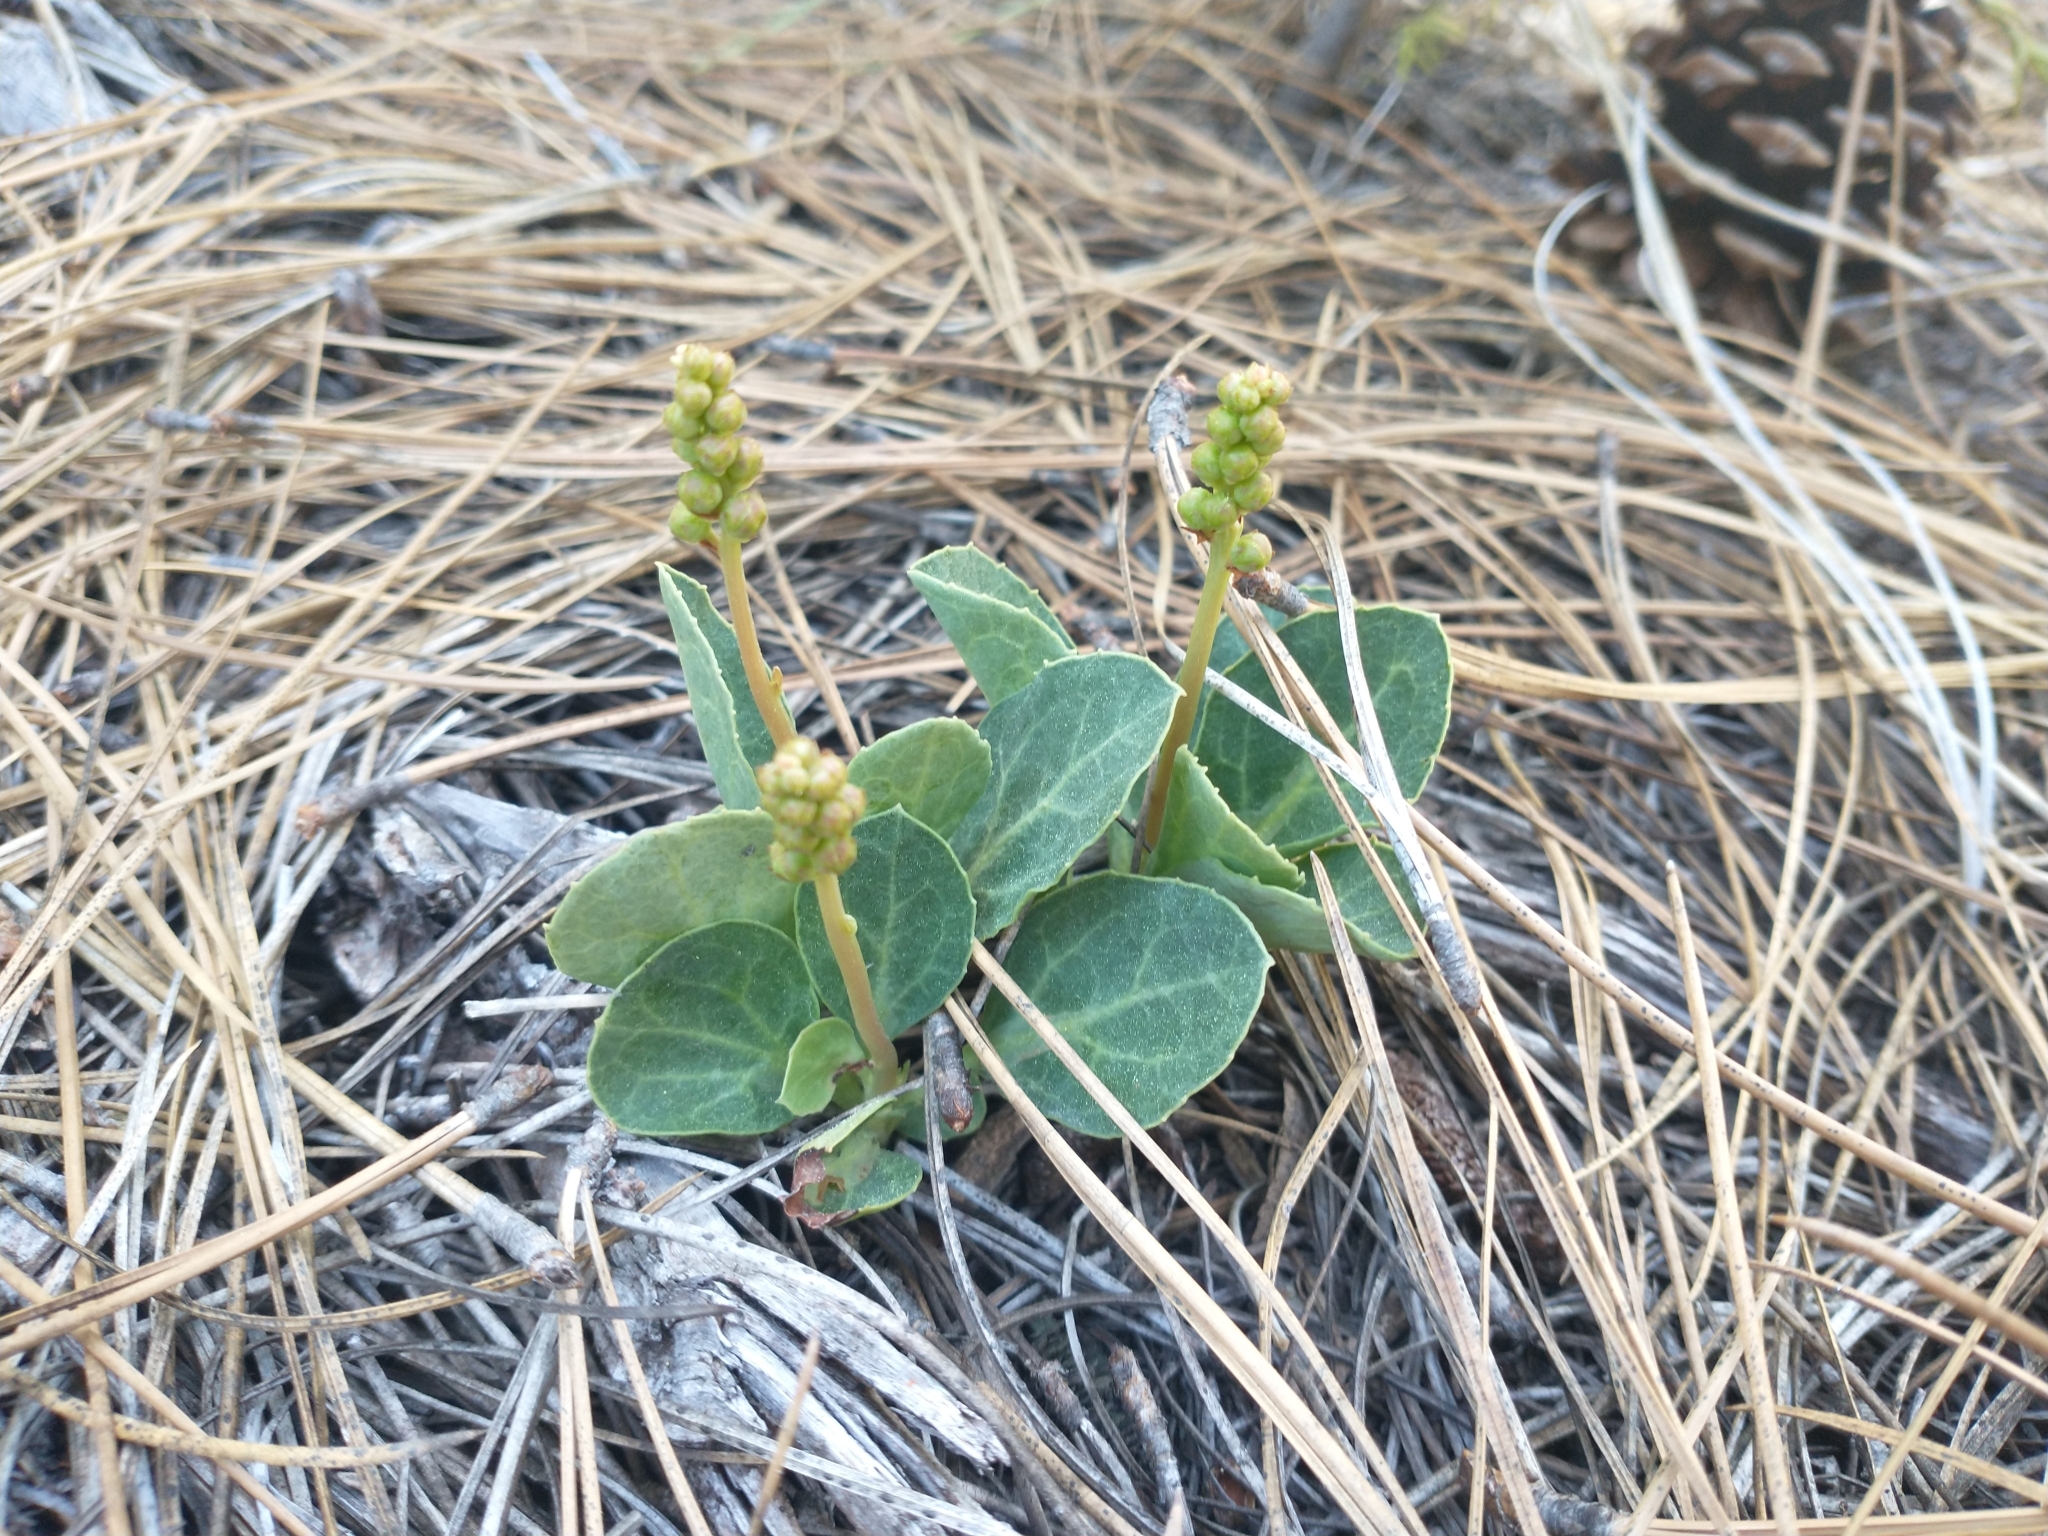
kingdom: Plantae
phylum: Tracheophyta
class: Magnoliopsida
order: Ericales
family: Ericaceae
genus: Pyrola
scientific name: Pyrola dentata
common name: Tooth-leaved wintergreen
